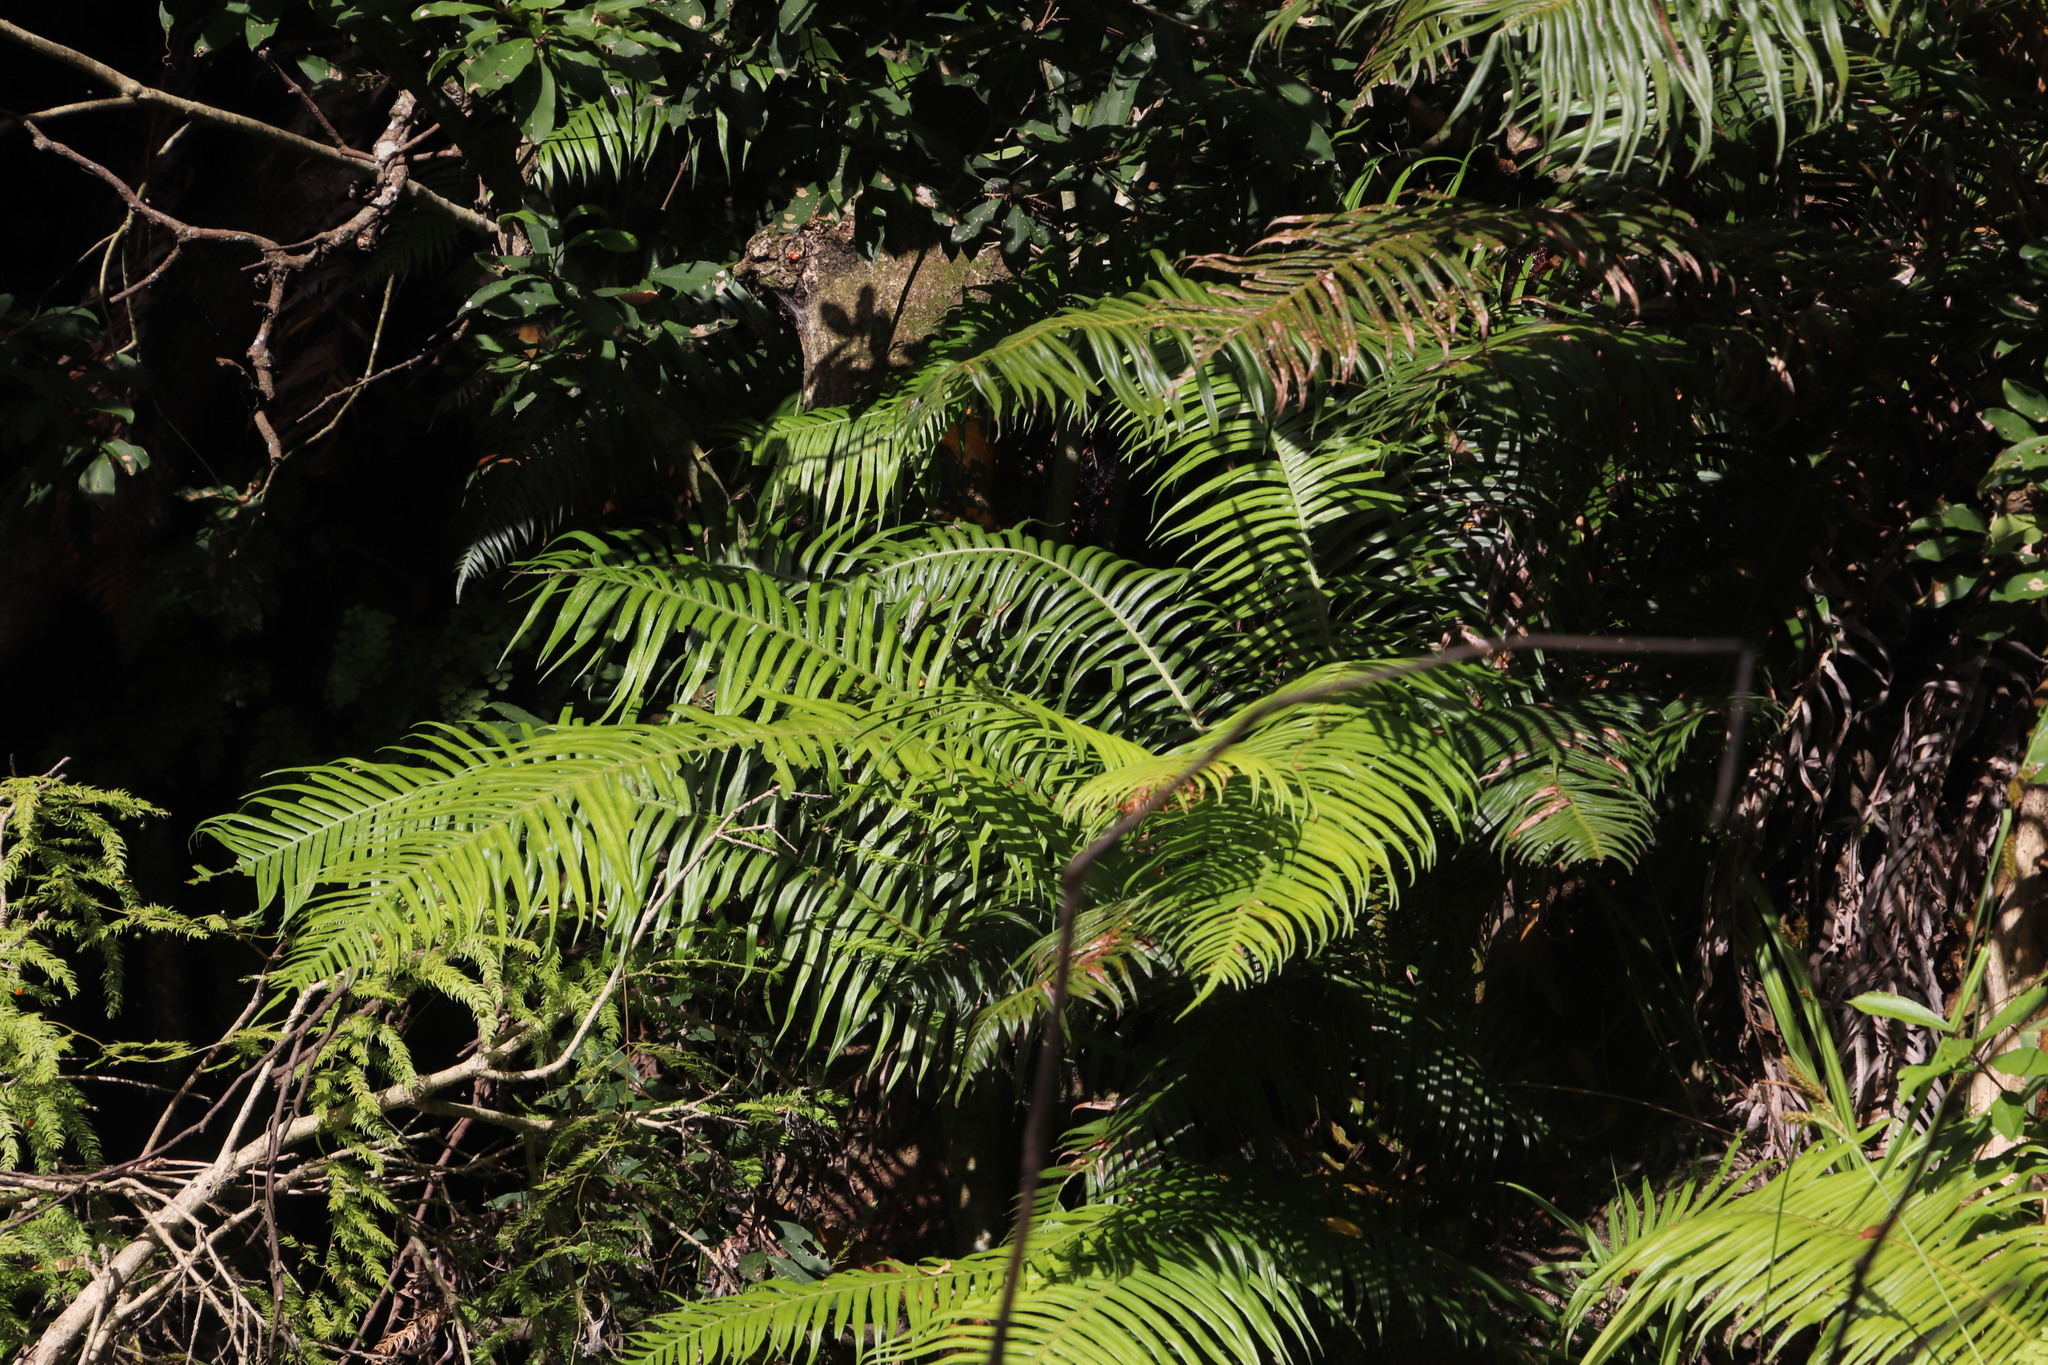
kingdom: Plantae
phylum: Tracheophyta
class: Polypodiopsida
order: Polypodiales
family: Blechnaceae
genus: Lomaridium
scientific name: Lomaridium attenuatum
